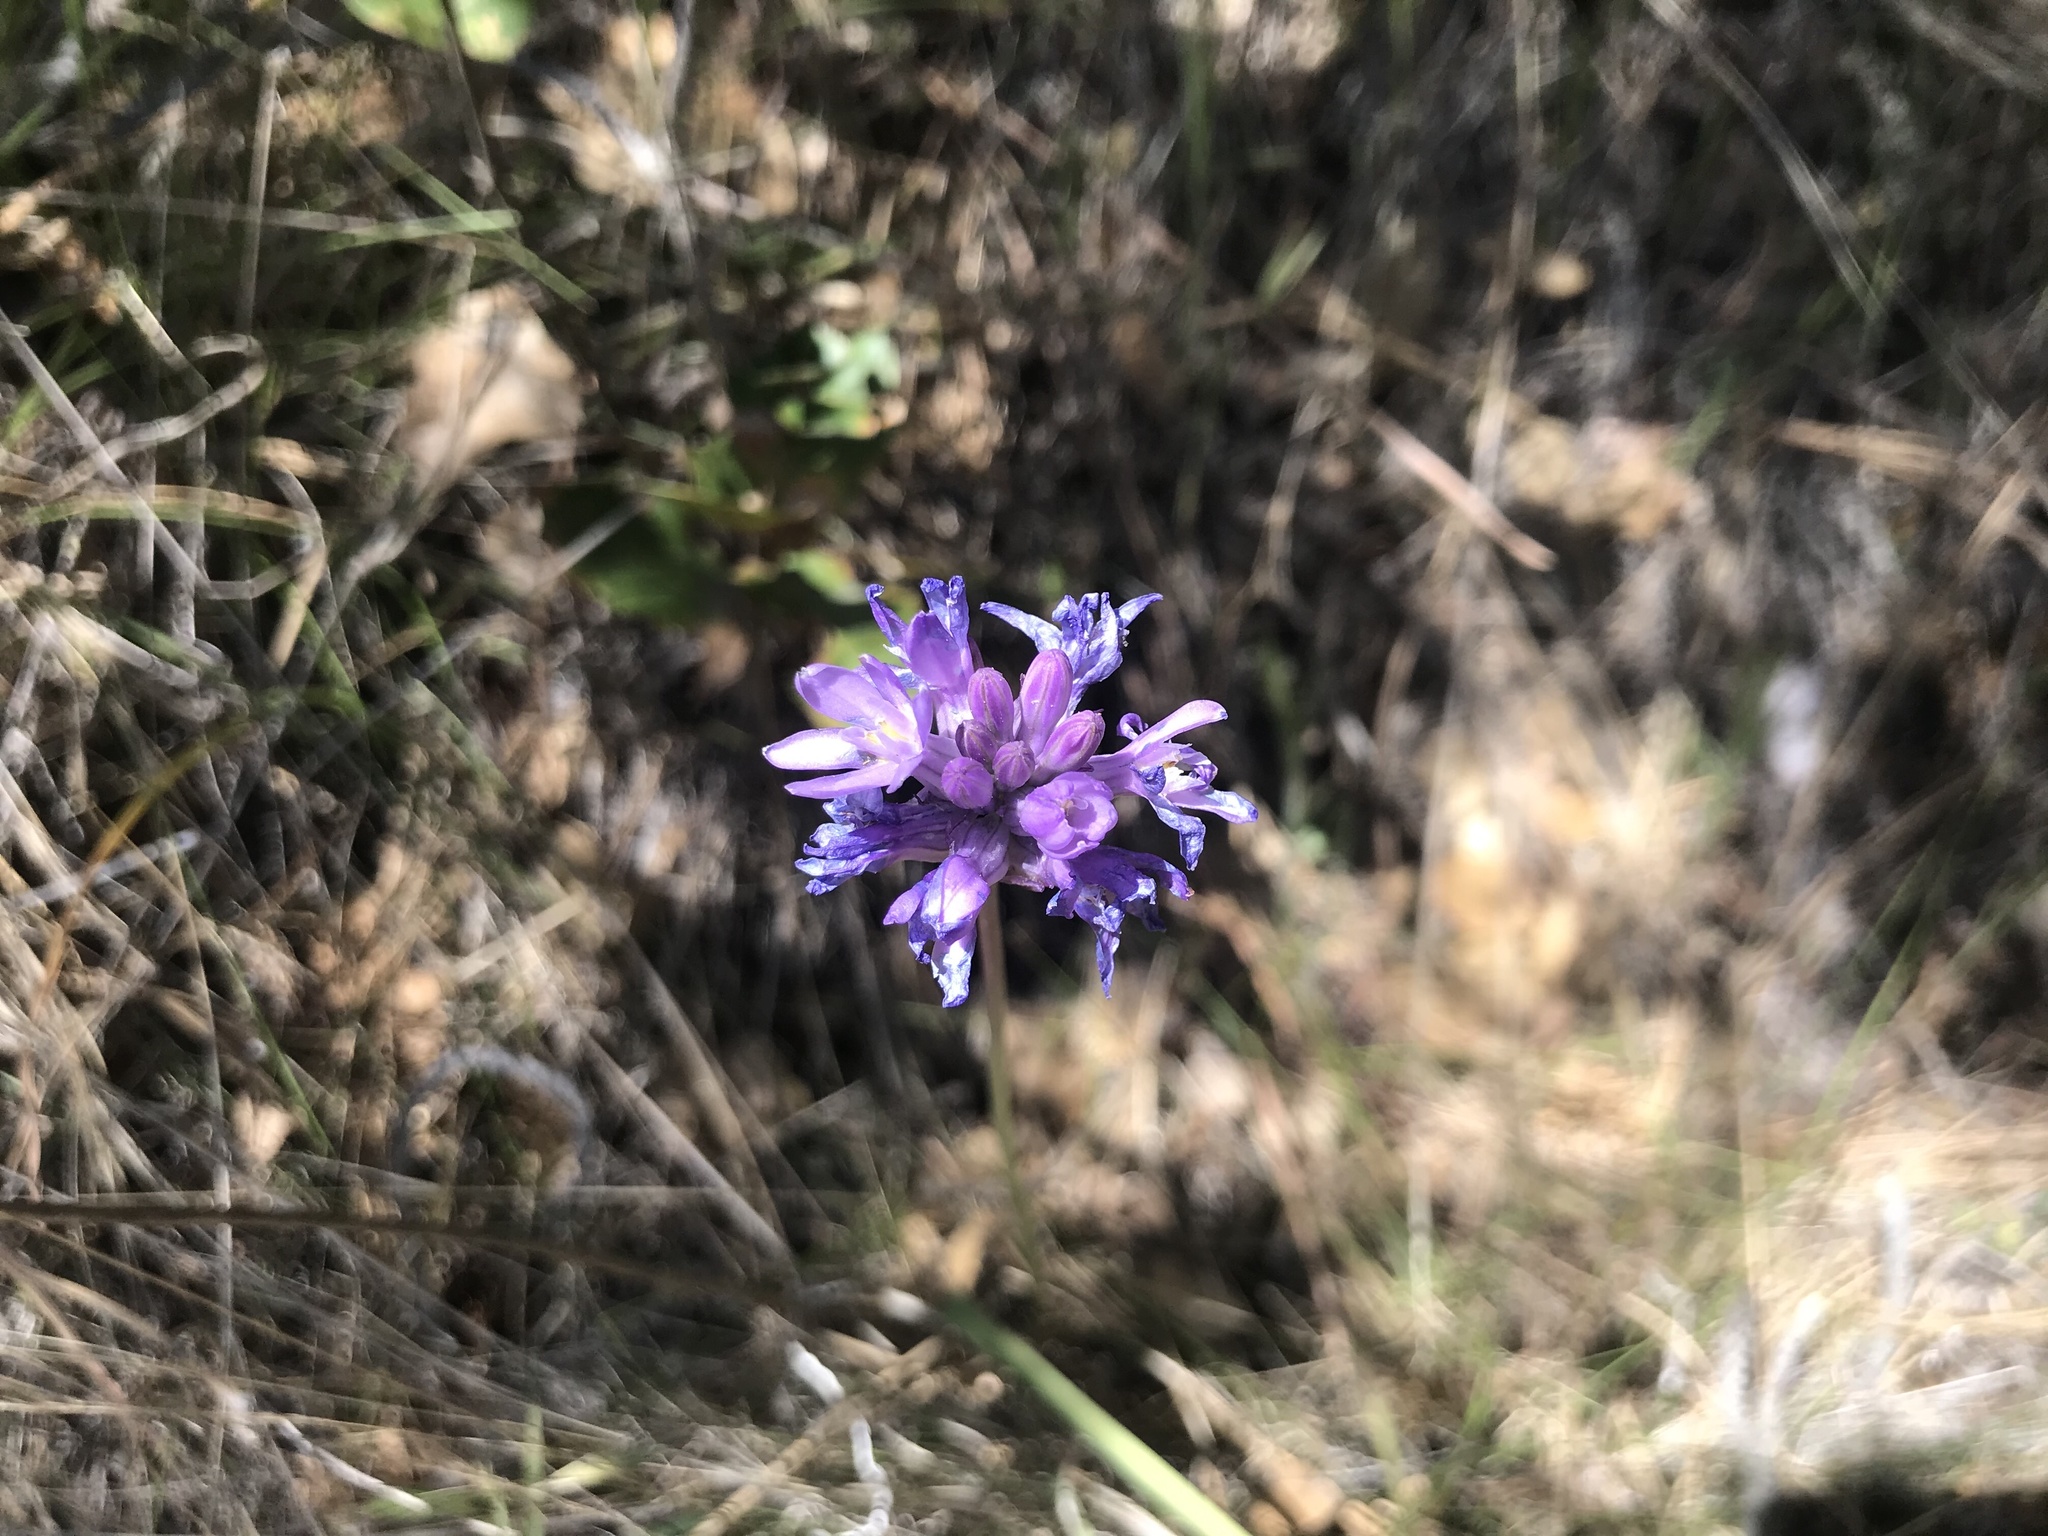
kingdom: Plantae
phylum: Tracheophyta
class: Liliopsida
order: Asparagales
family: Asparagaceae
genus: Dipterostemon
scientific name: Dipterostemon capitatus
